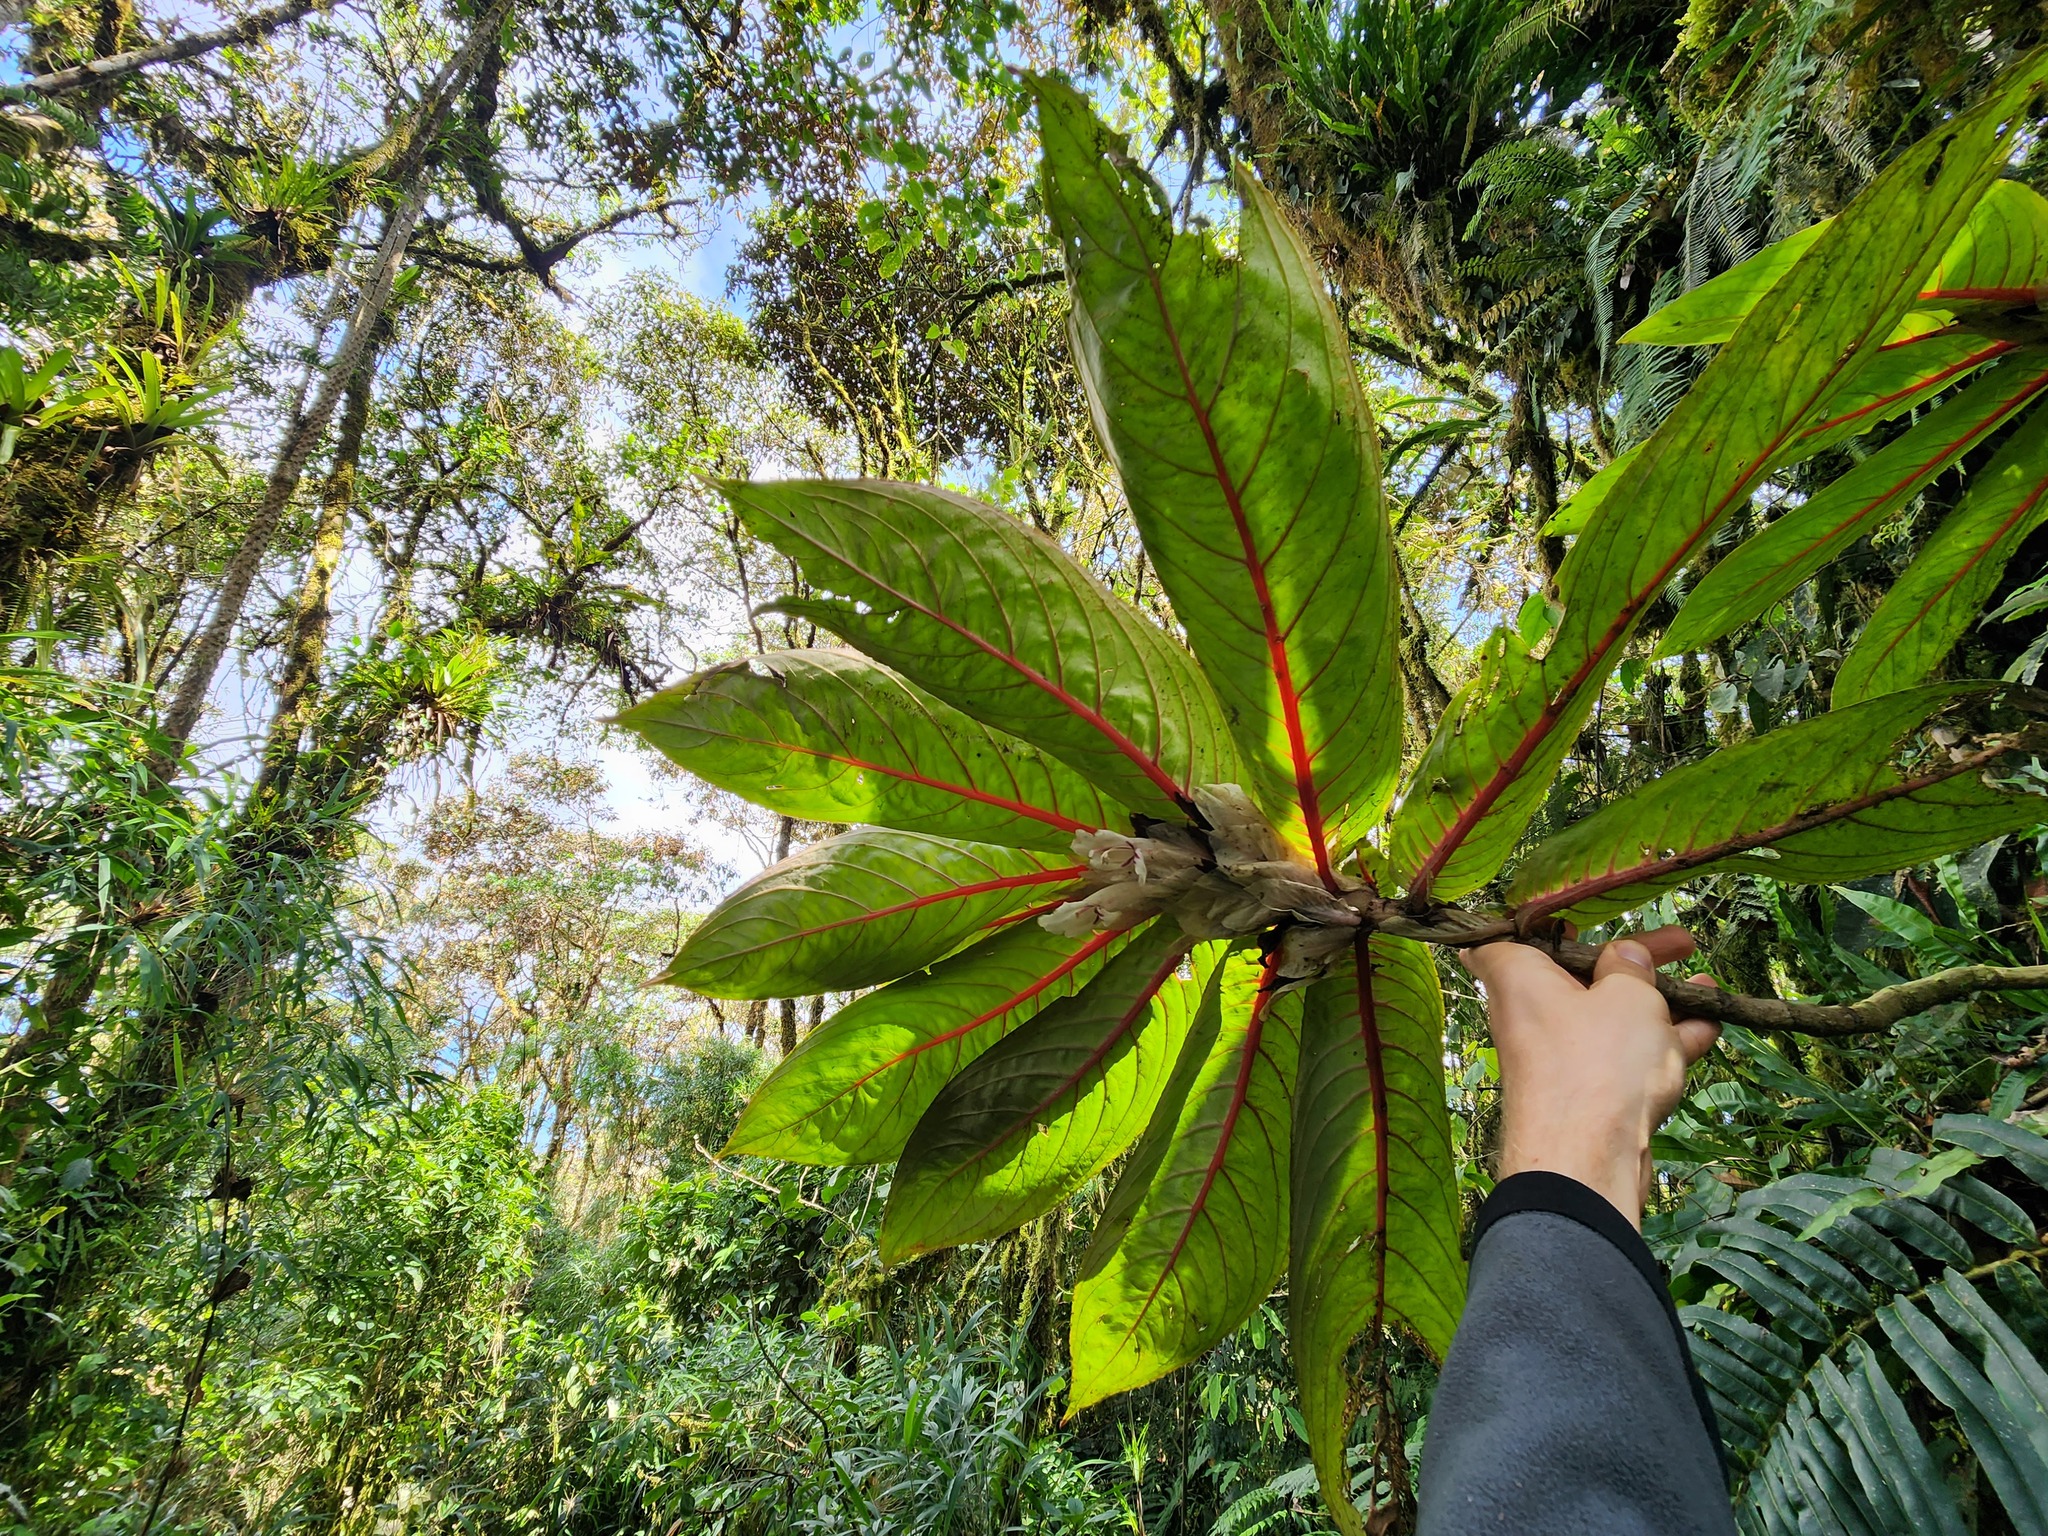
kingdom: Plantae
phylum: Tracheophyta
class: Magnoliopsida
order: Lamiales
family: Gesneriaceae
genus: Columnea
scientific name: Columnea albiflora
